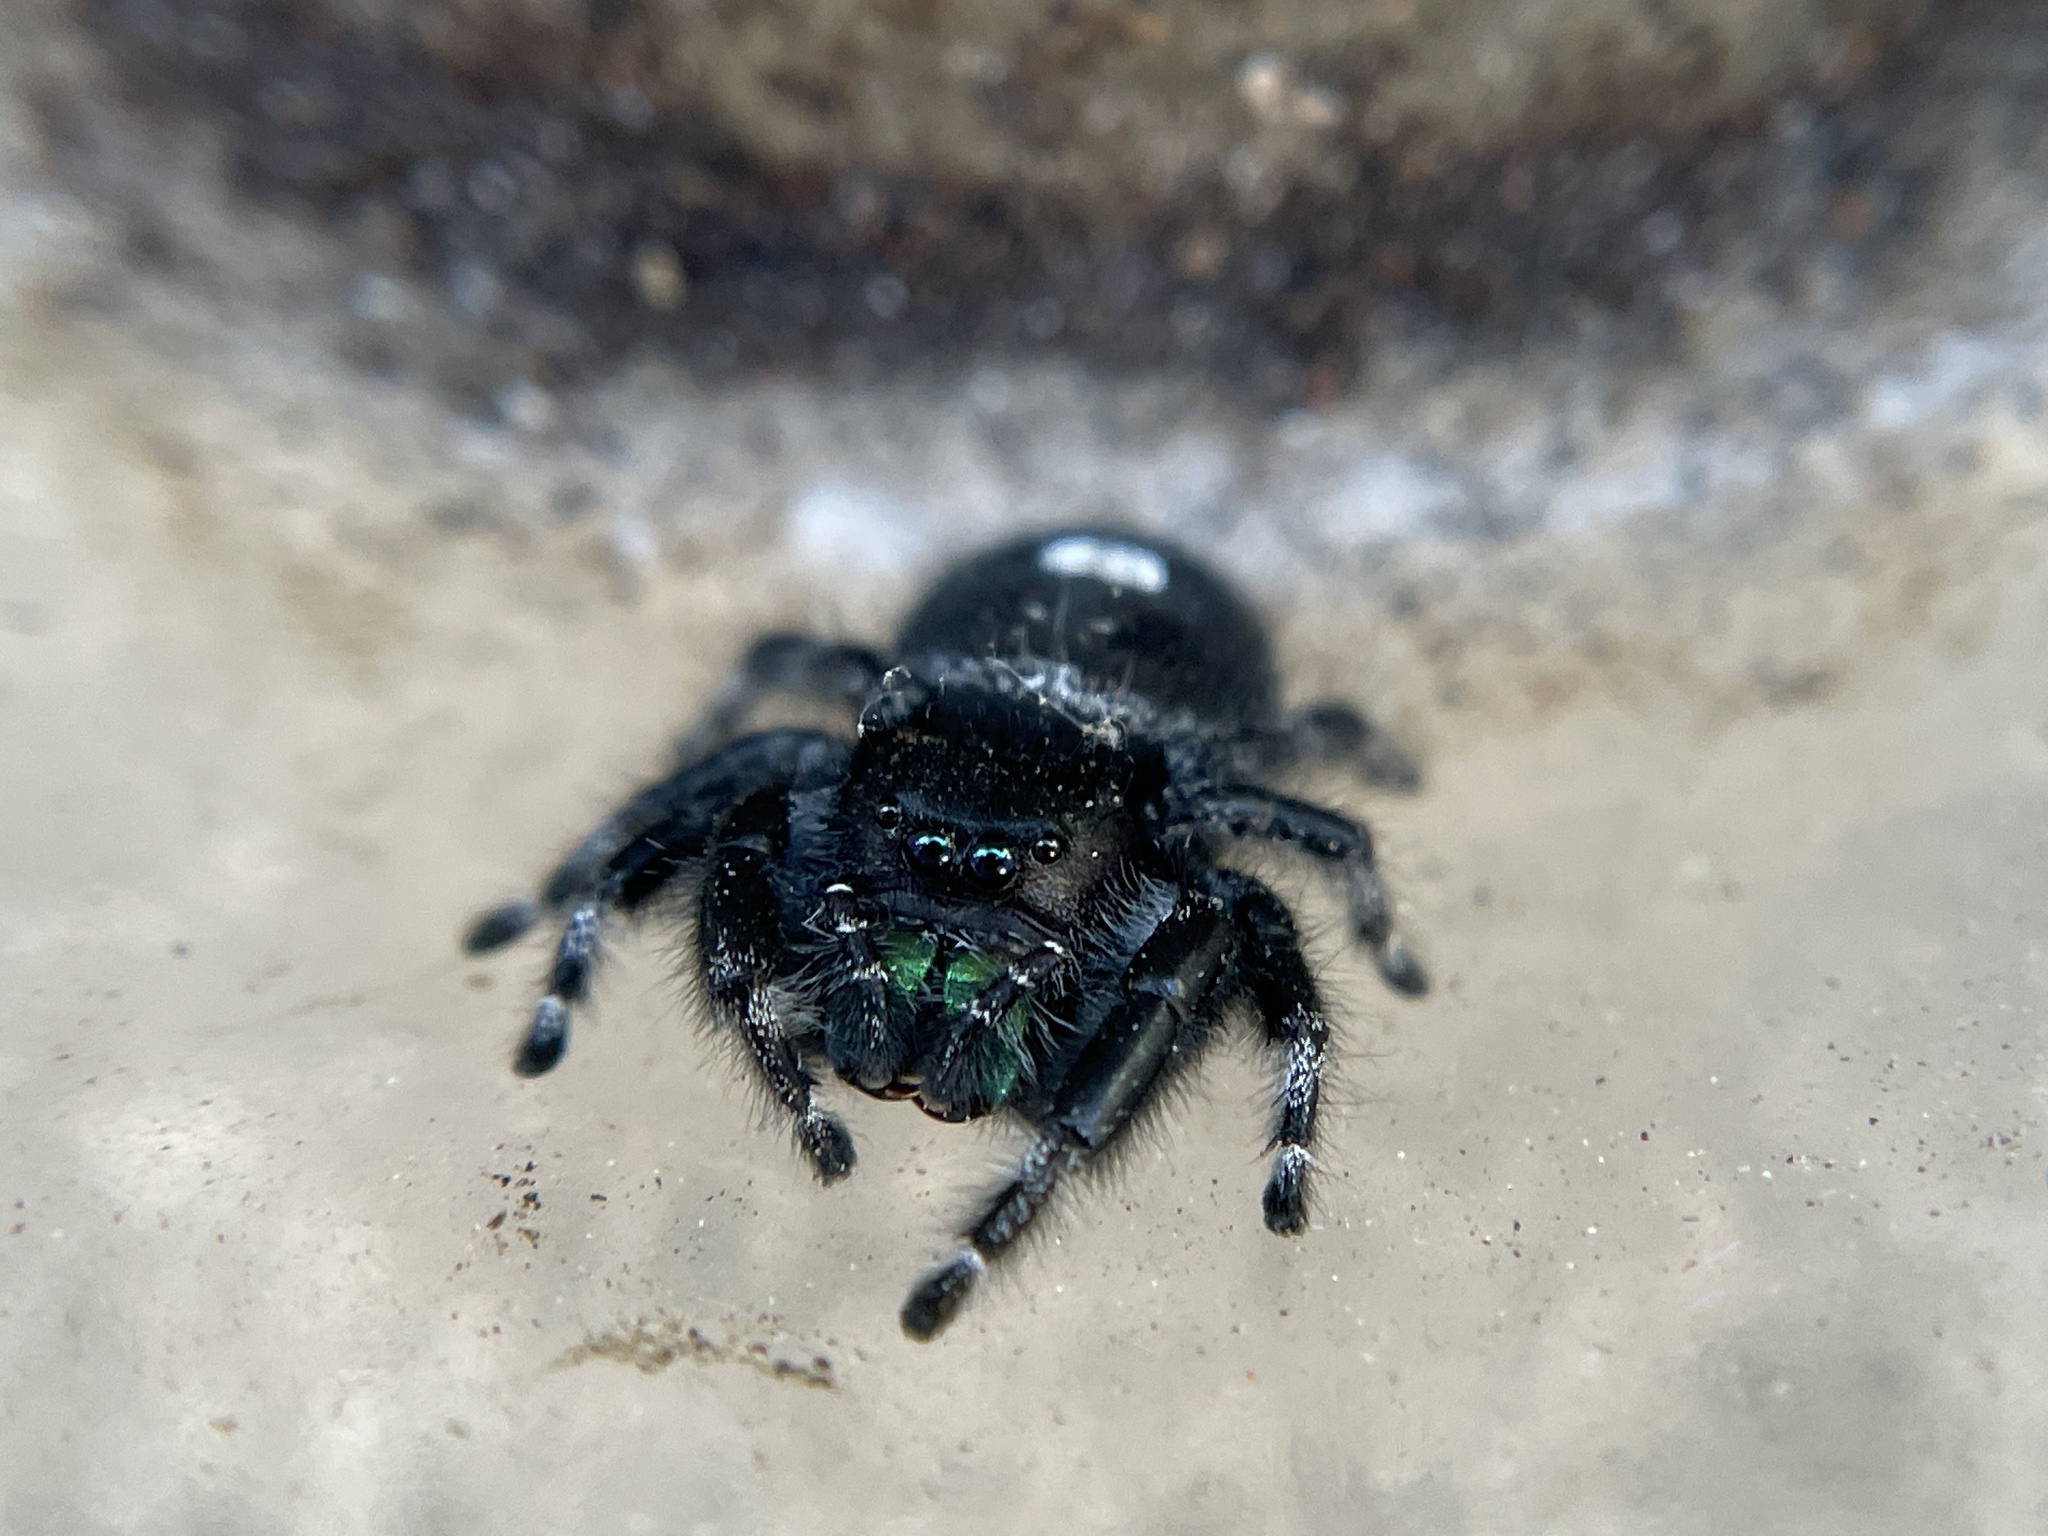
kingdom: Animalia
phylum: Arthropoda
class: Arachnida
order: Araneae
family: Salticidae
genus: Phidippus
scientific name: Phidippus audax
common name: Bold jumper
